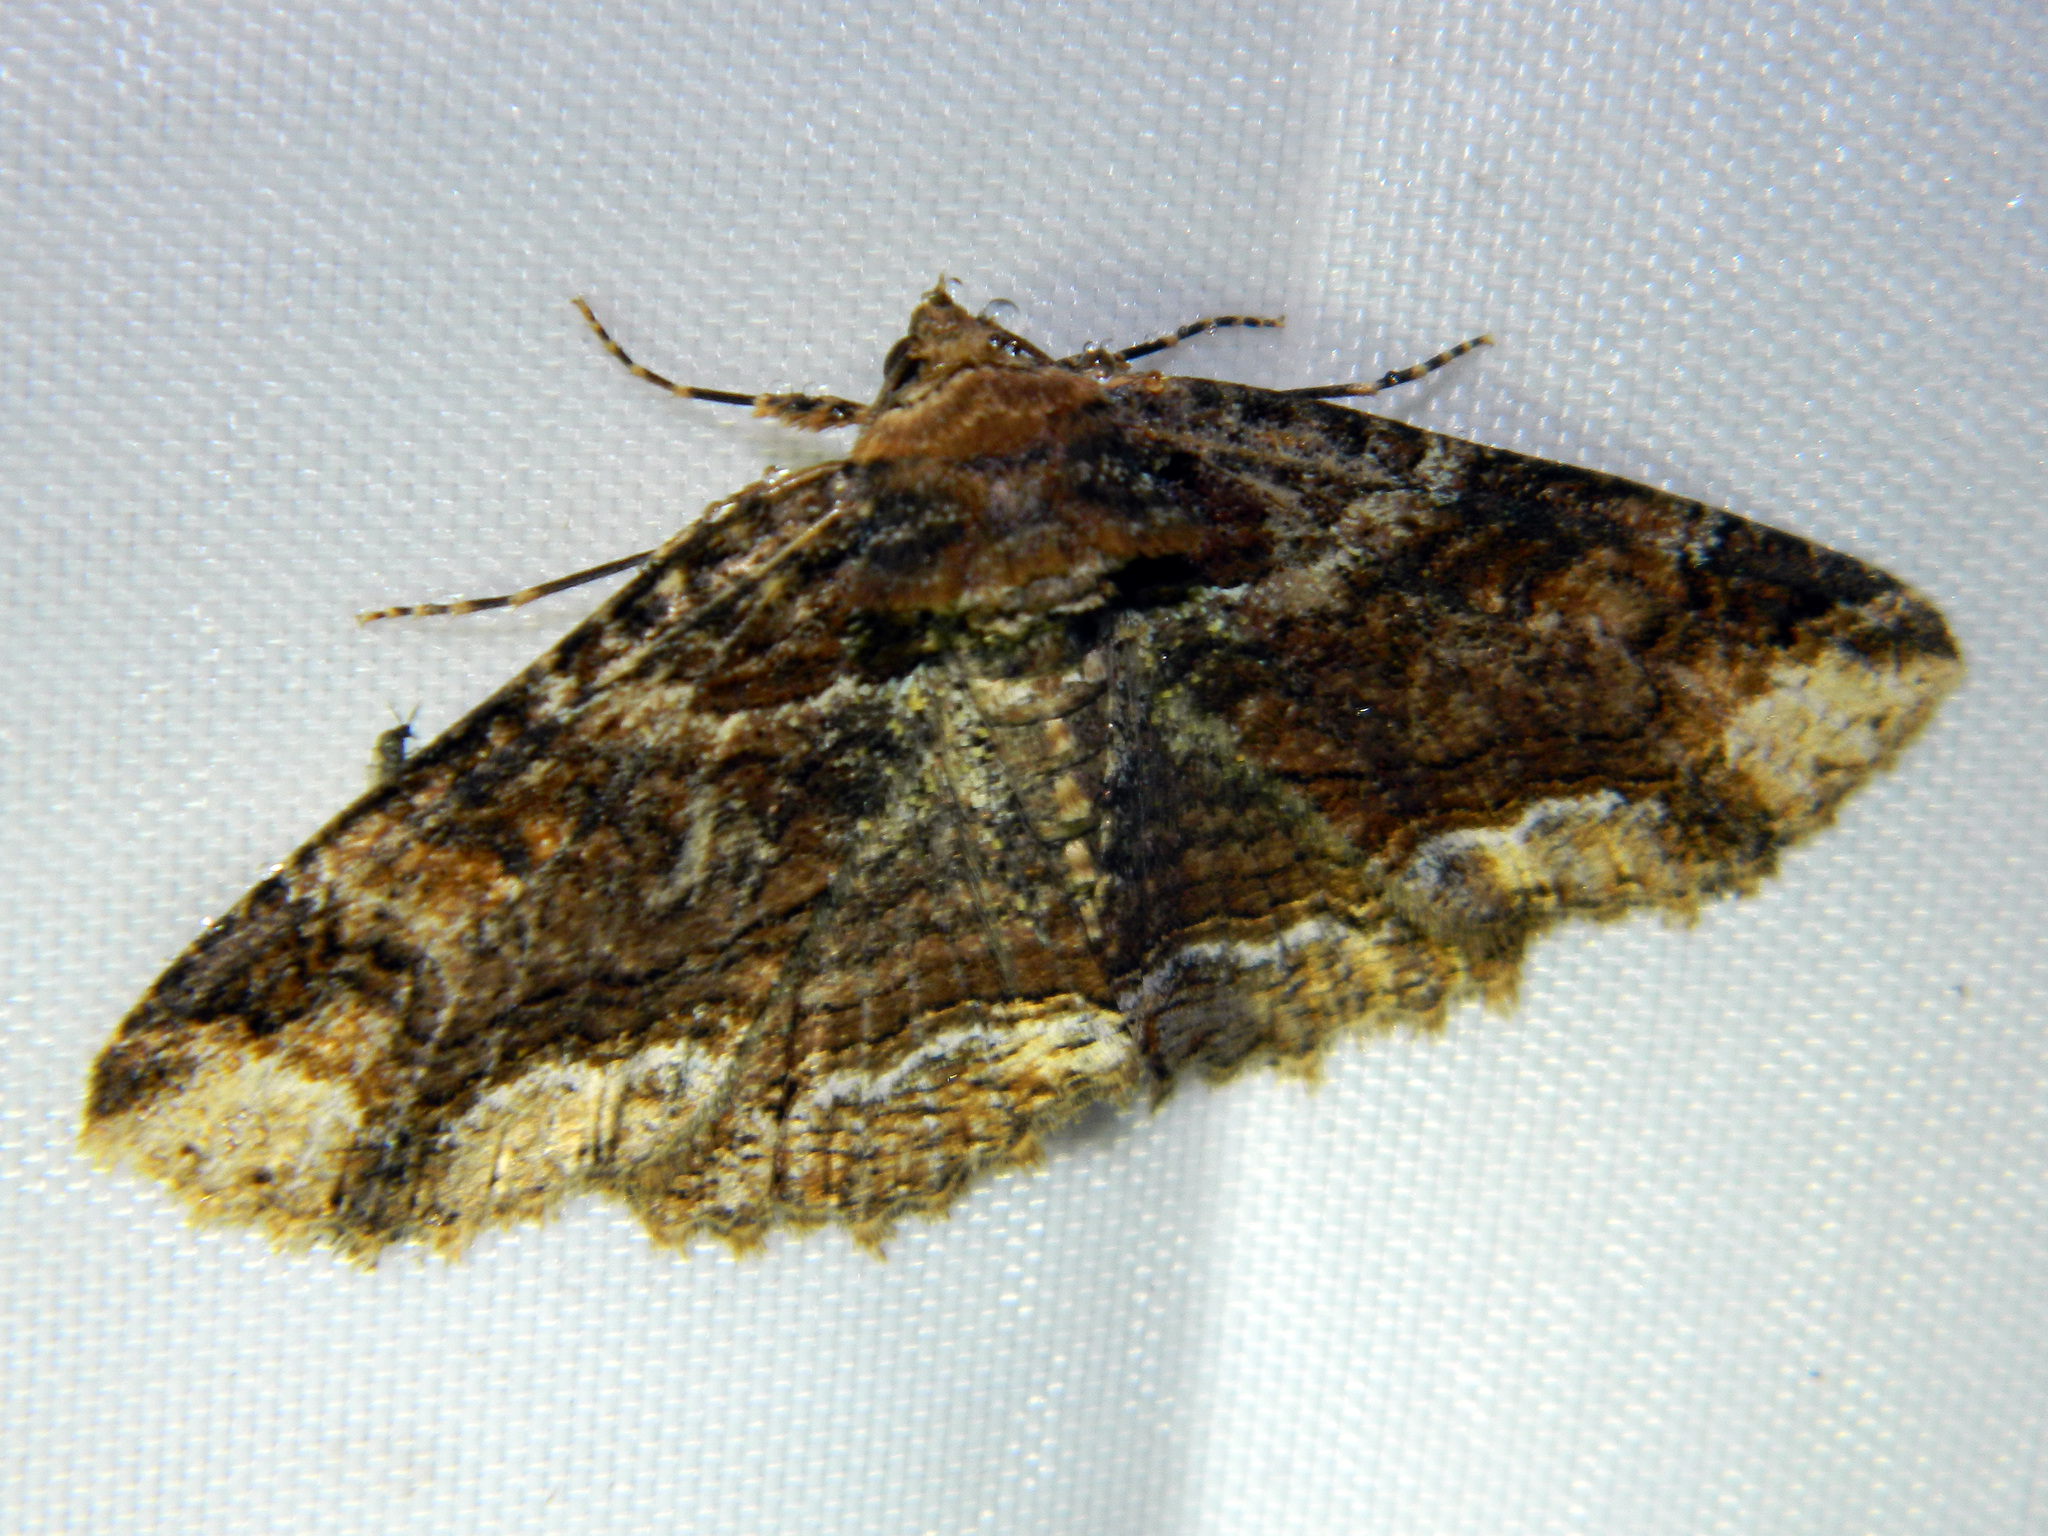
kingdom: Animalia
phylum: Arthropoda
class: Insecta
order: Lepidoptera
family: Erebidae
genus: Zale
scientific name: Zale minerea
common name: Colorful zale moth
